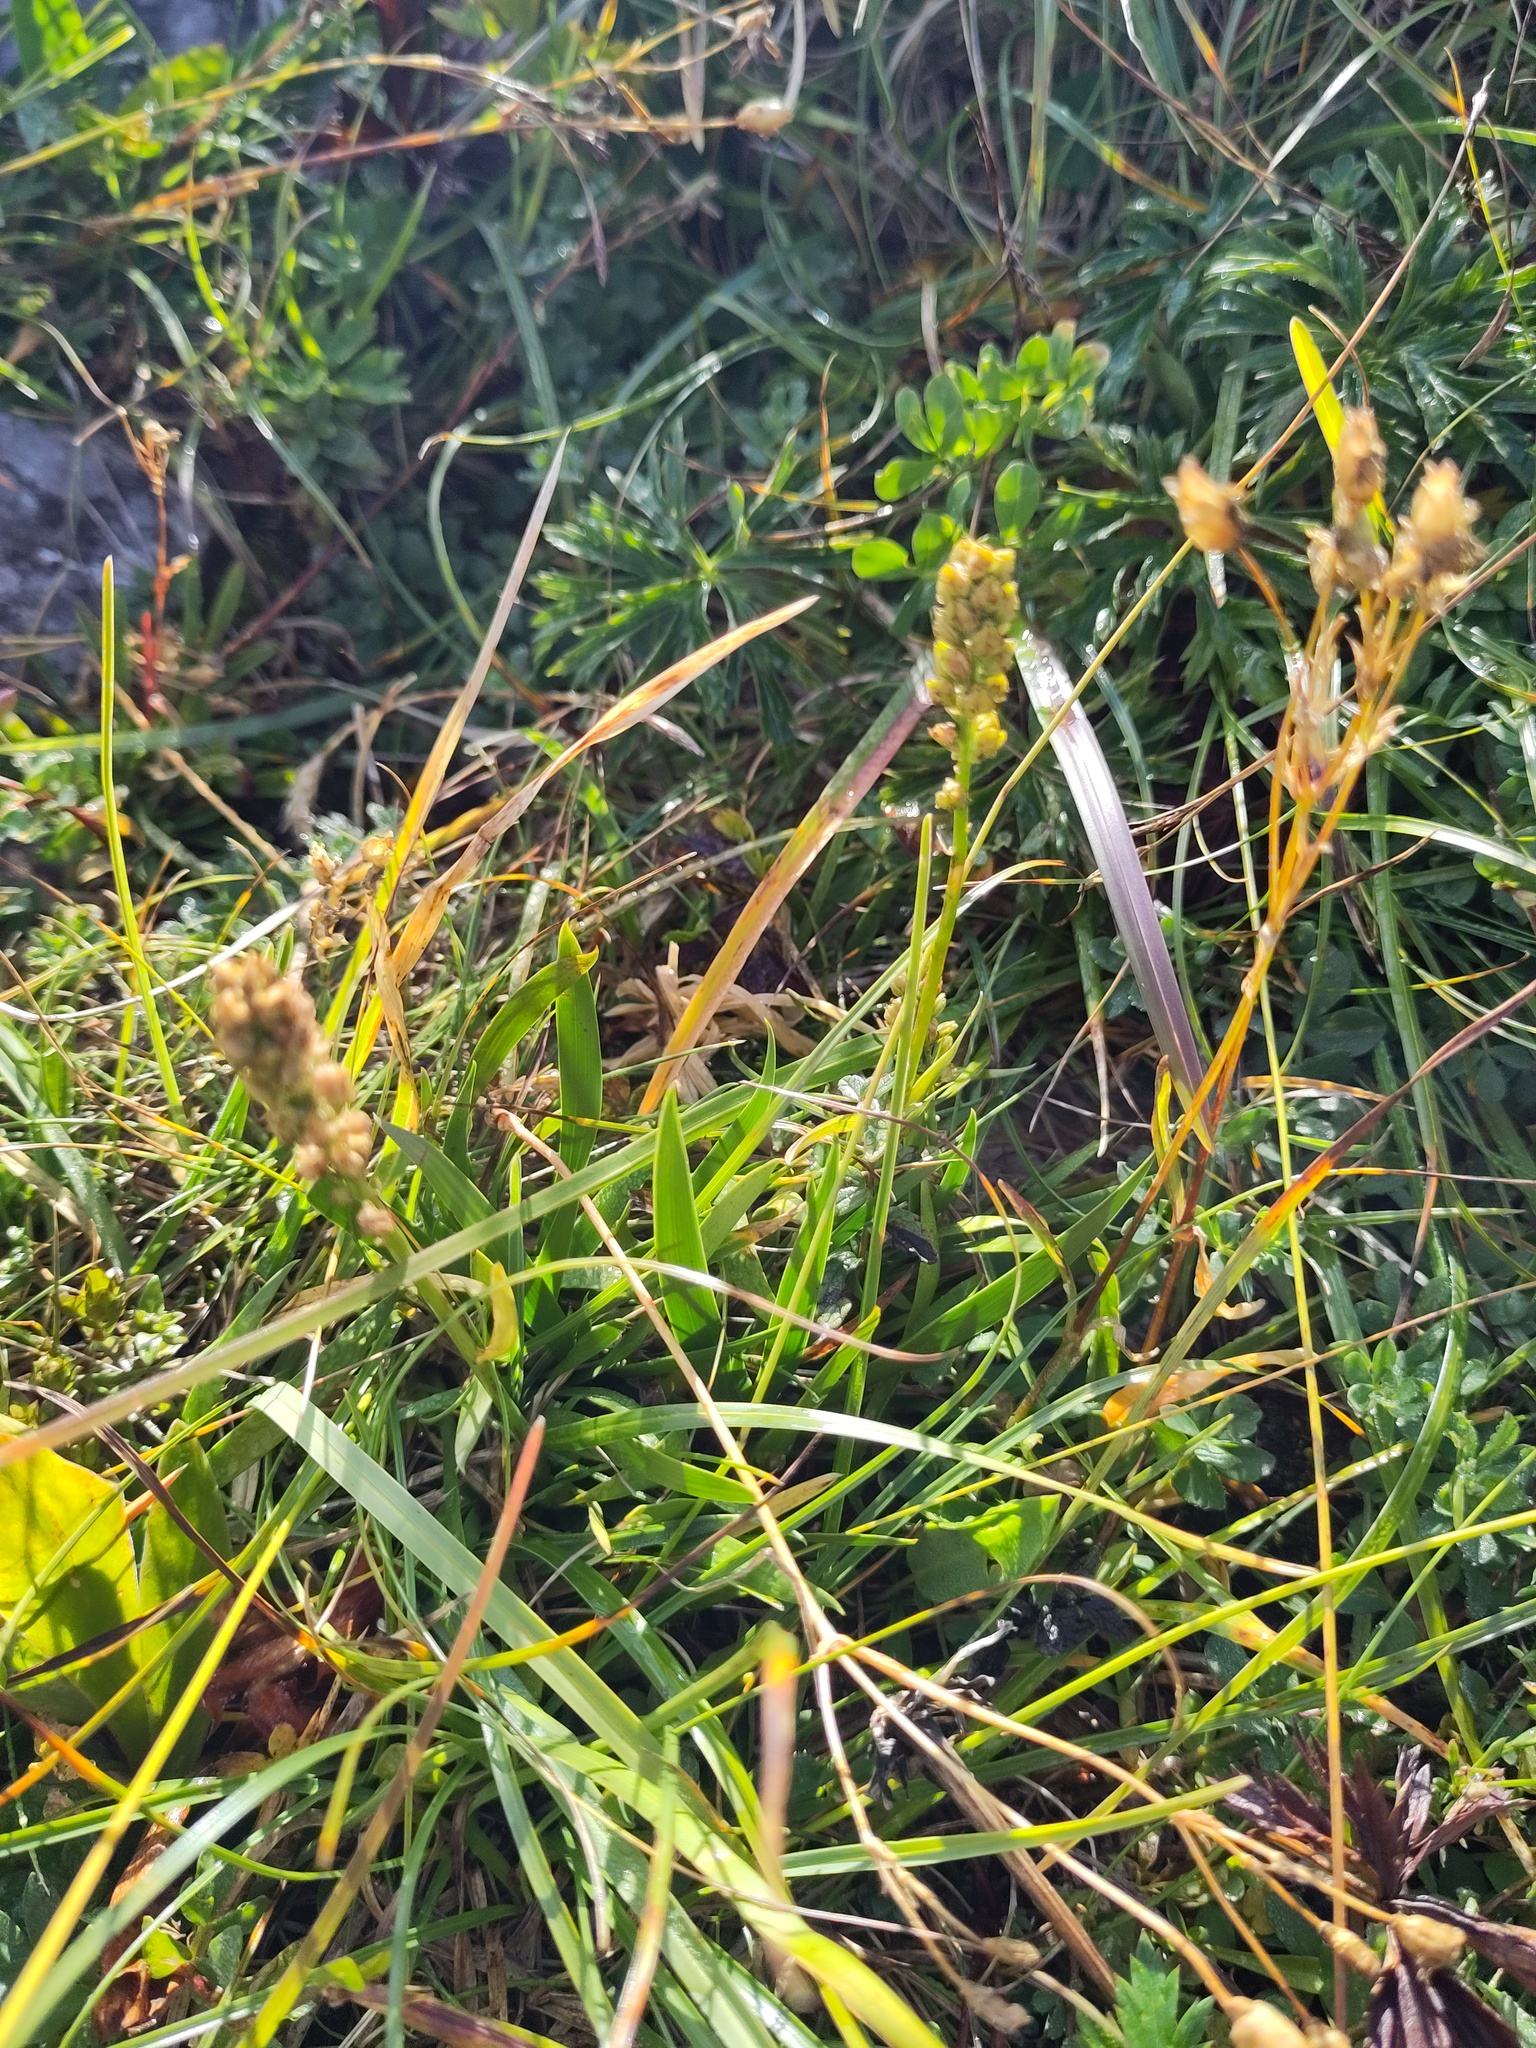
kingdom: Plantae
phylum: Tracheophyta
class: Liliopsida
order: Alismatales
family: Tofieldiaceae
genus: Tofieldia
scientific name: Tofieldia calyculata
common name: German-asphodel
